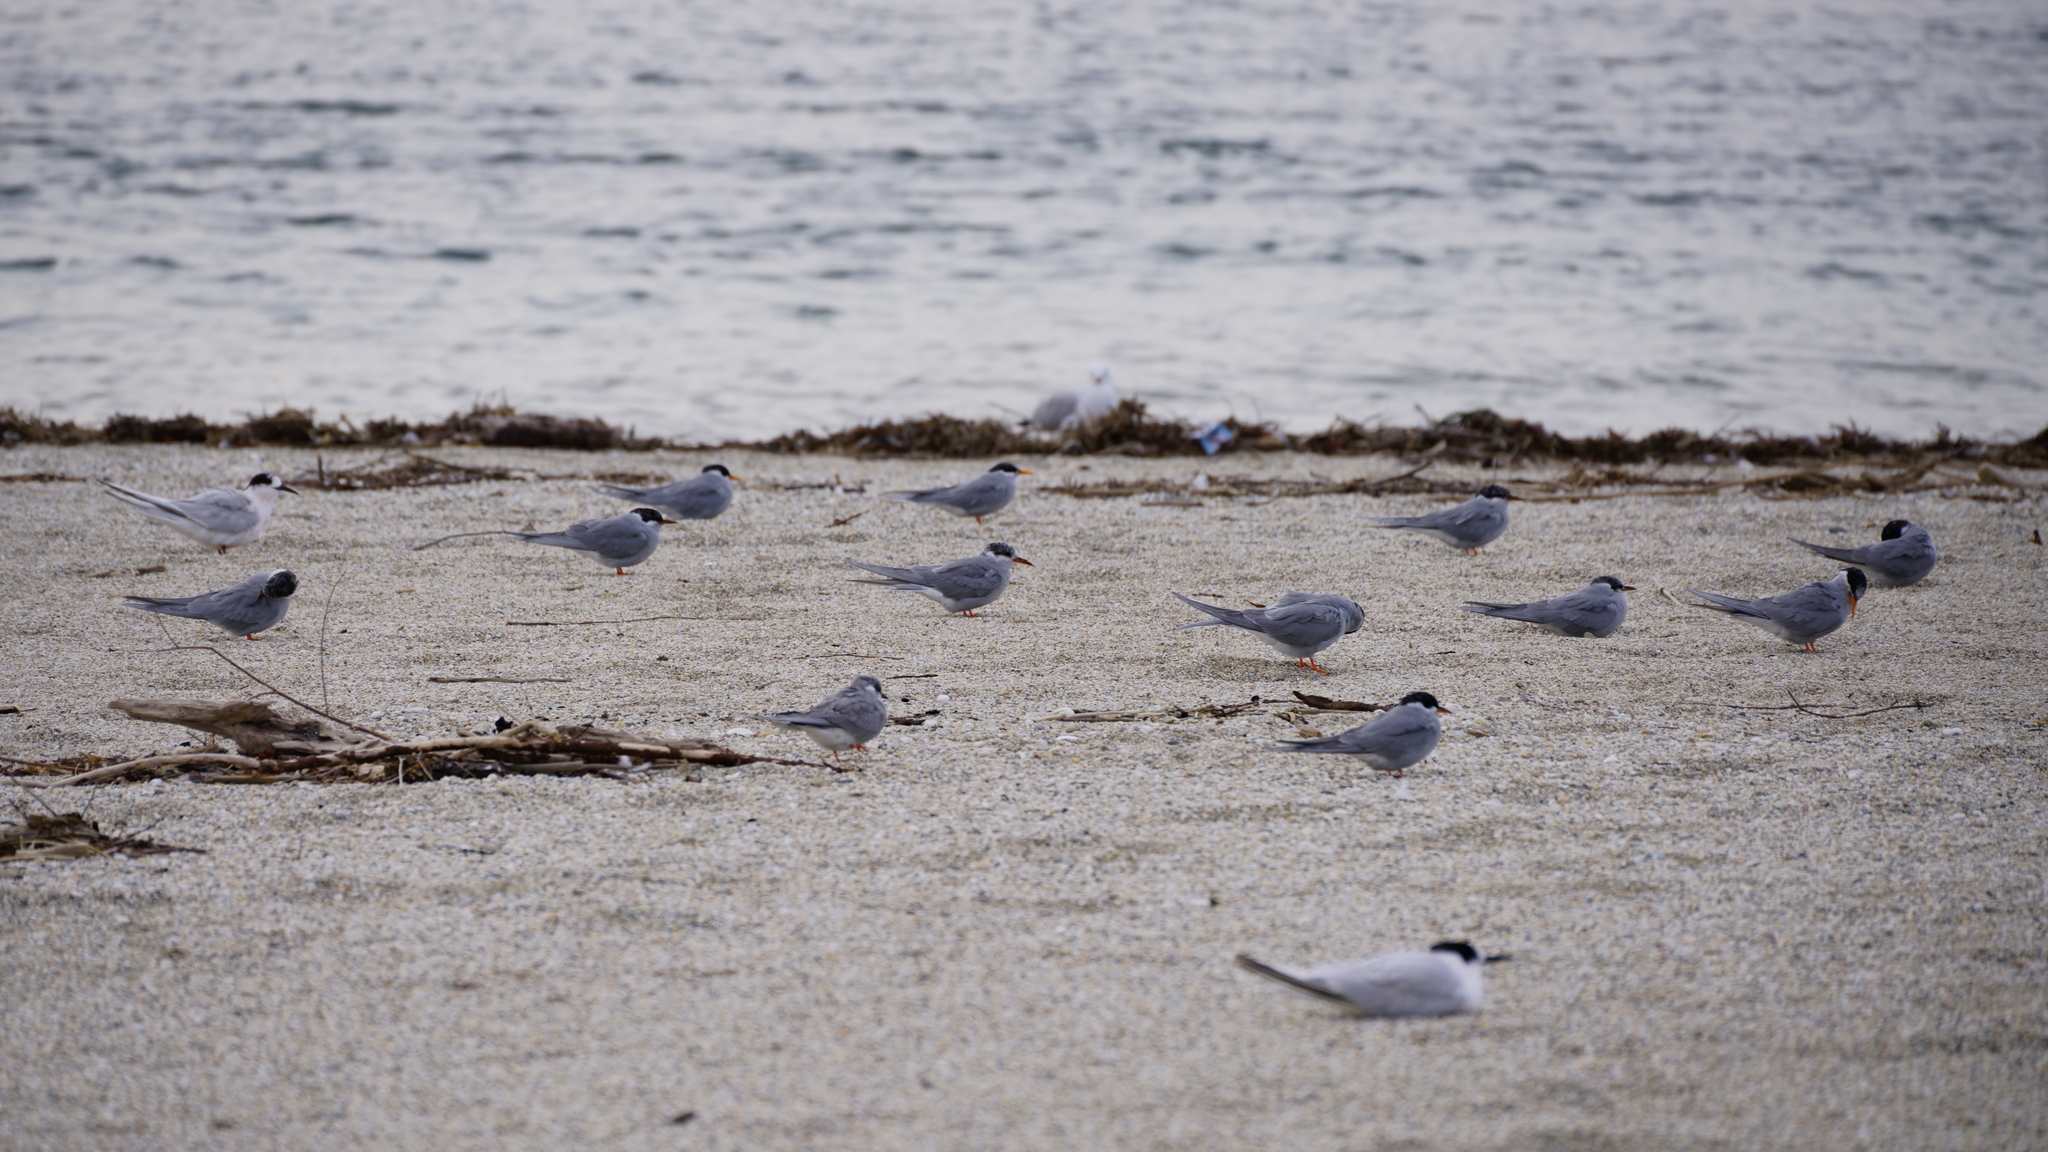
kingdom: Animalia
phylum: Chordata
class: Aves
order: Charadriiformes
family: Laridae
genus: Chlidonias
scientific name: Chlidonias albostriatus
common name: Black-fronted tern
